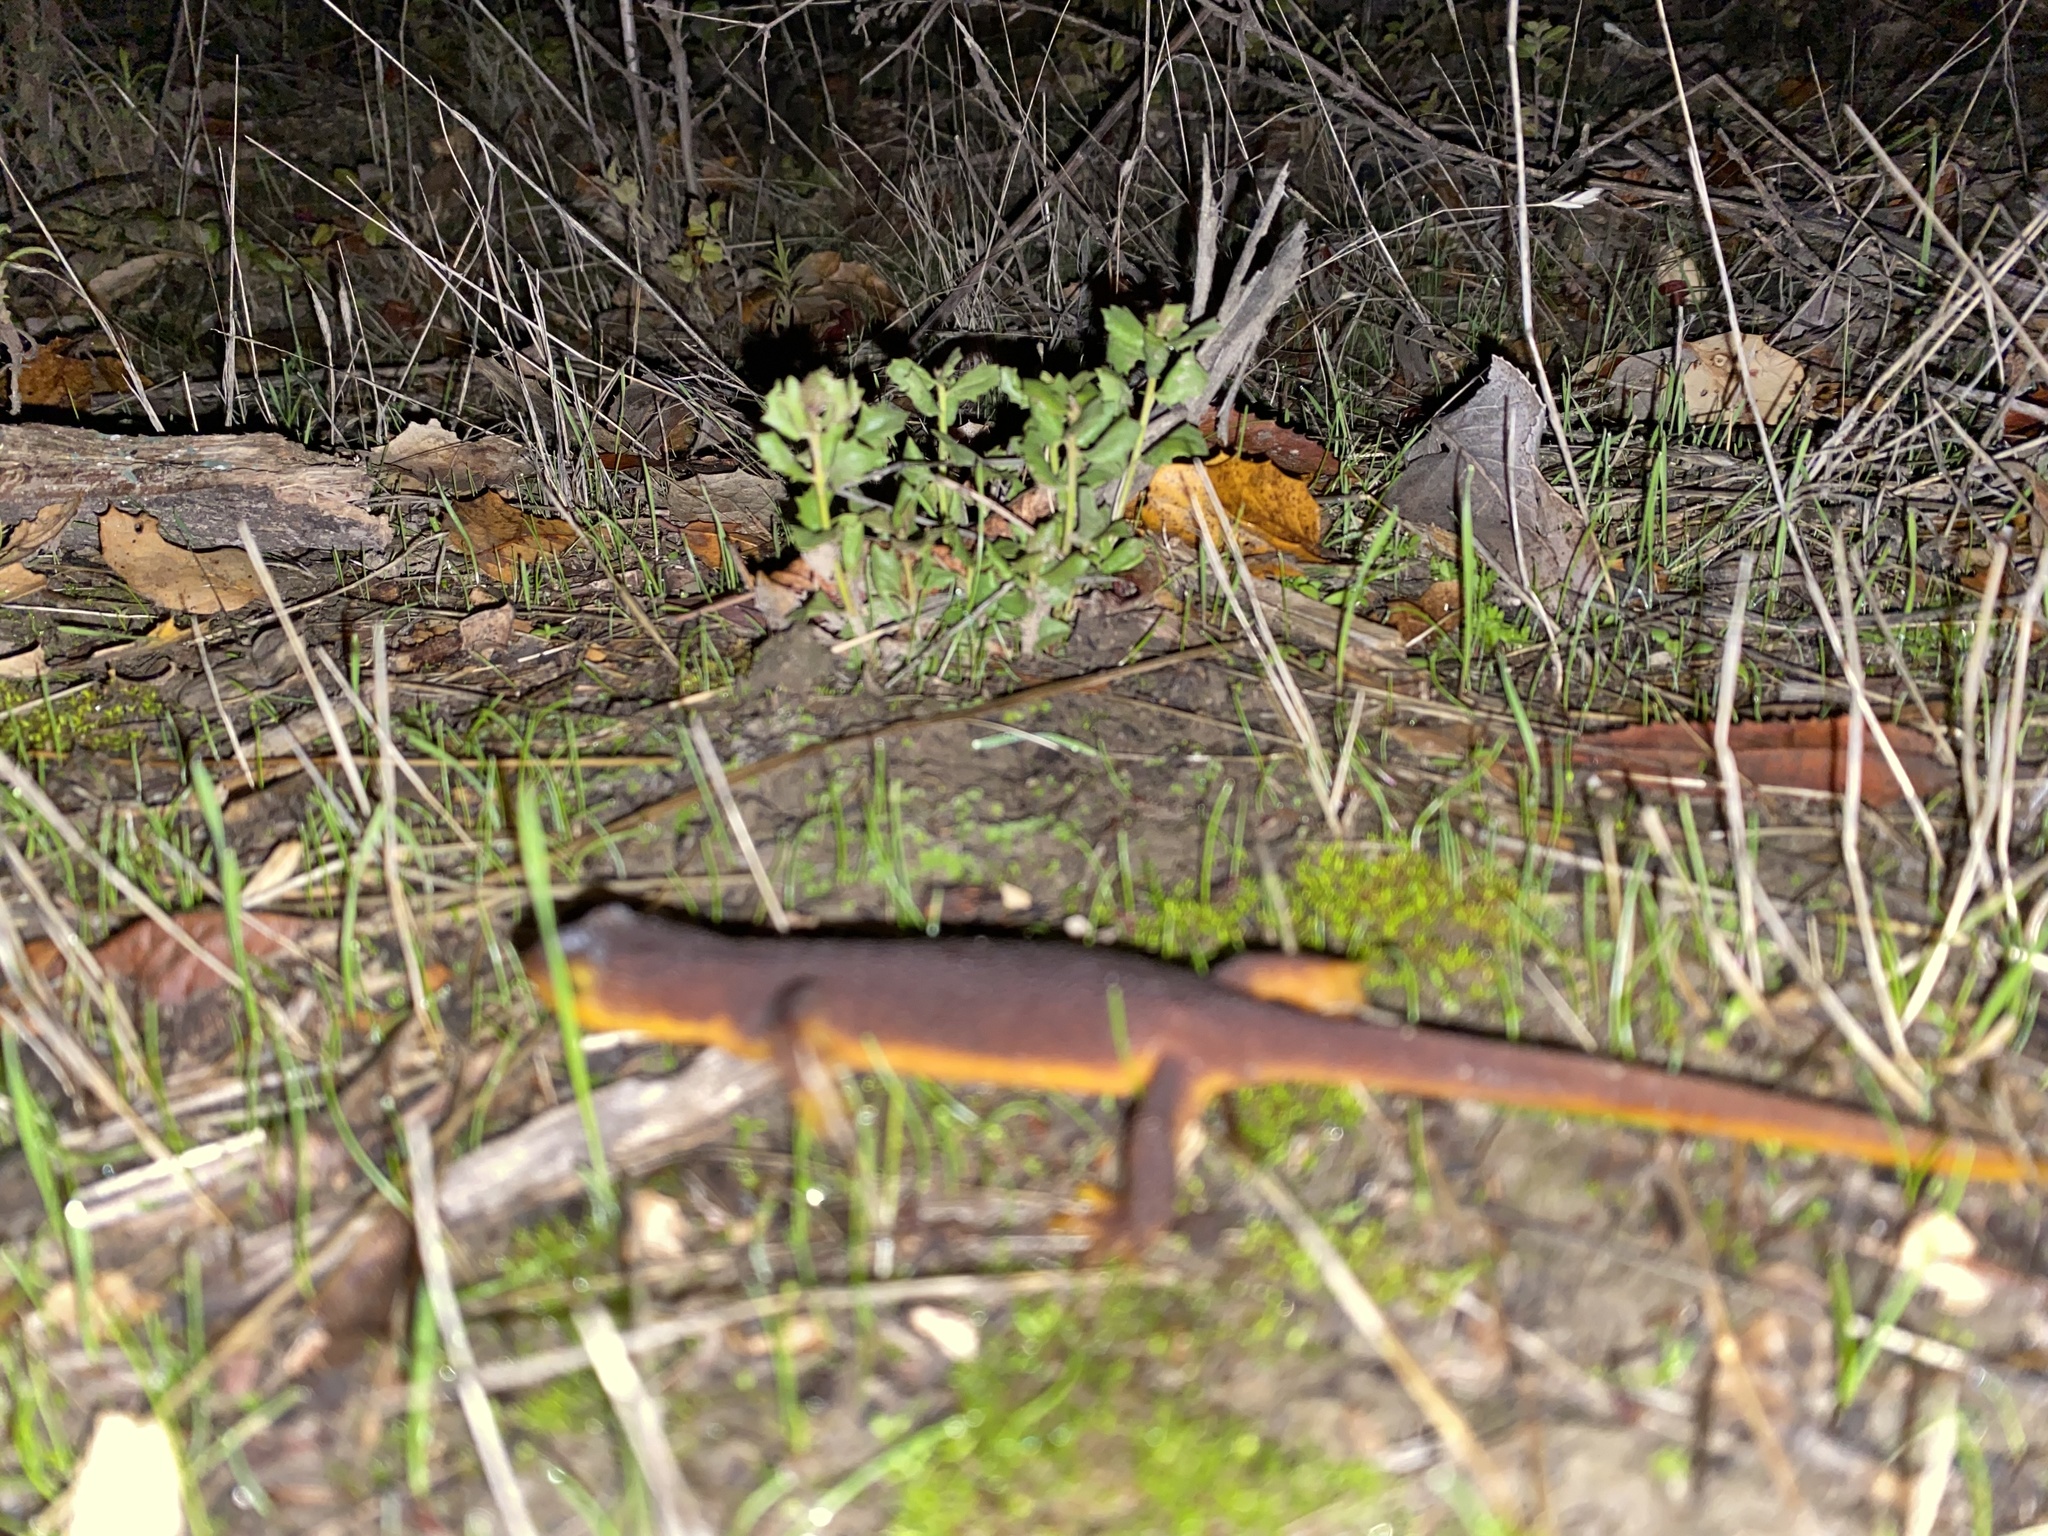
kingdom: Animalia
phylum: Chordata
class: Amphibia
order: Caudata
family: Salamandridae
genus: Taricha
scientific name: Taricha torosa
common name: California newt
